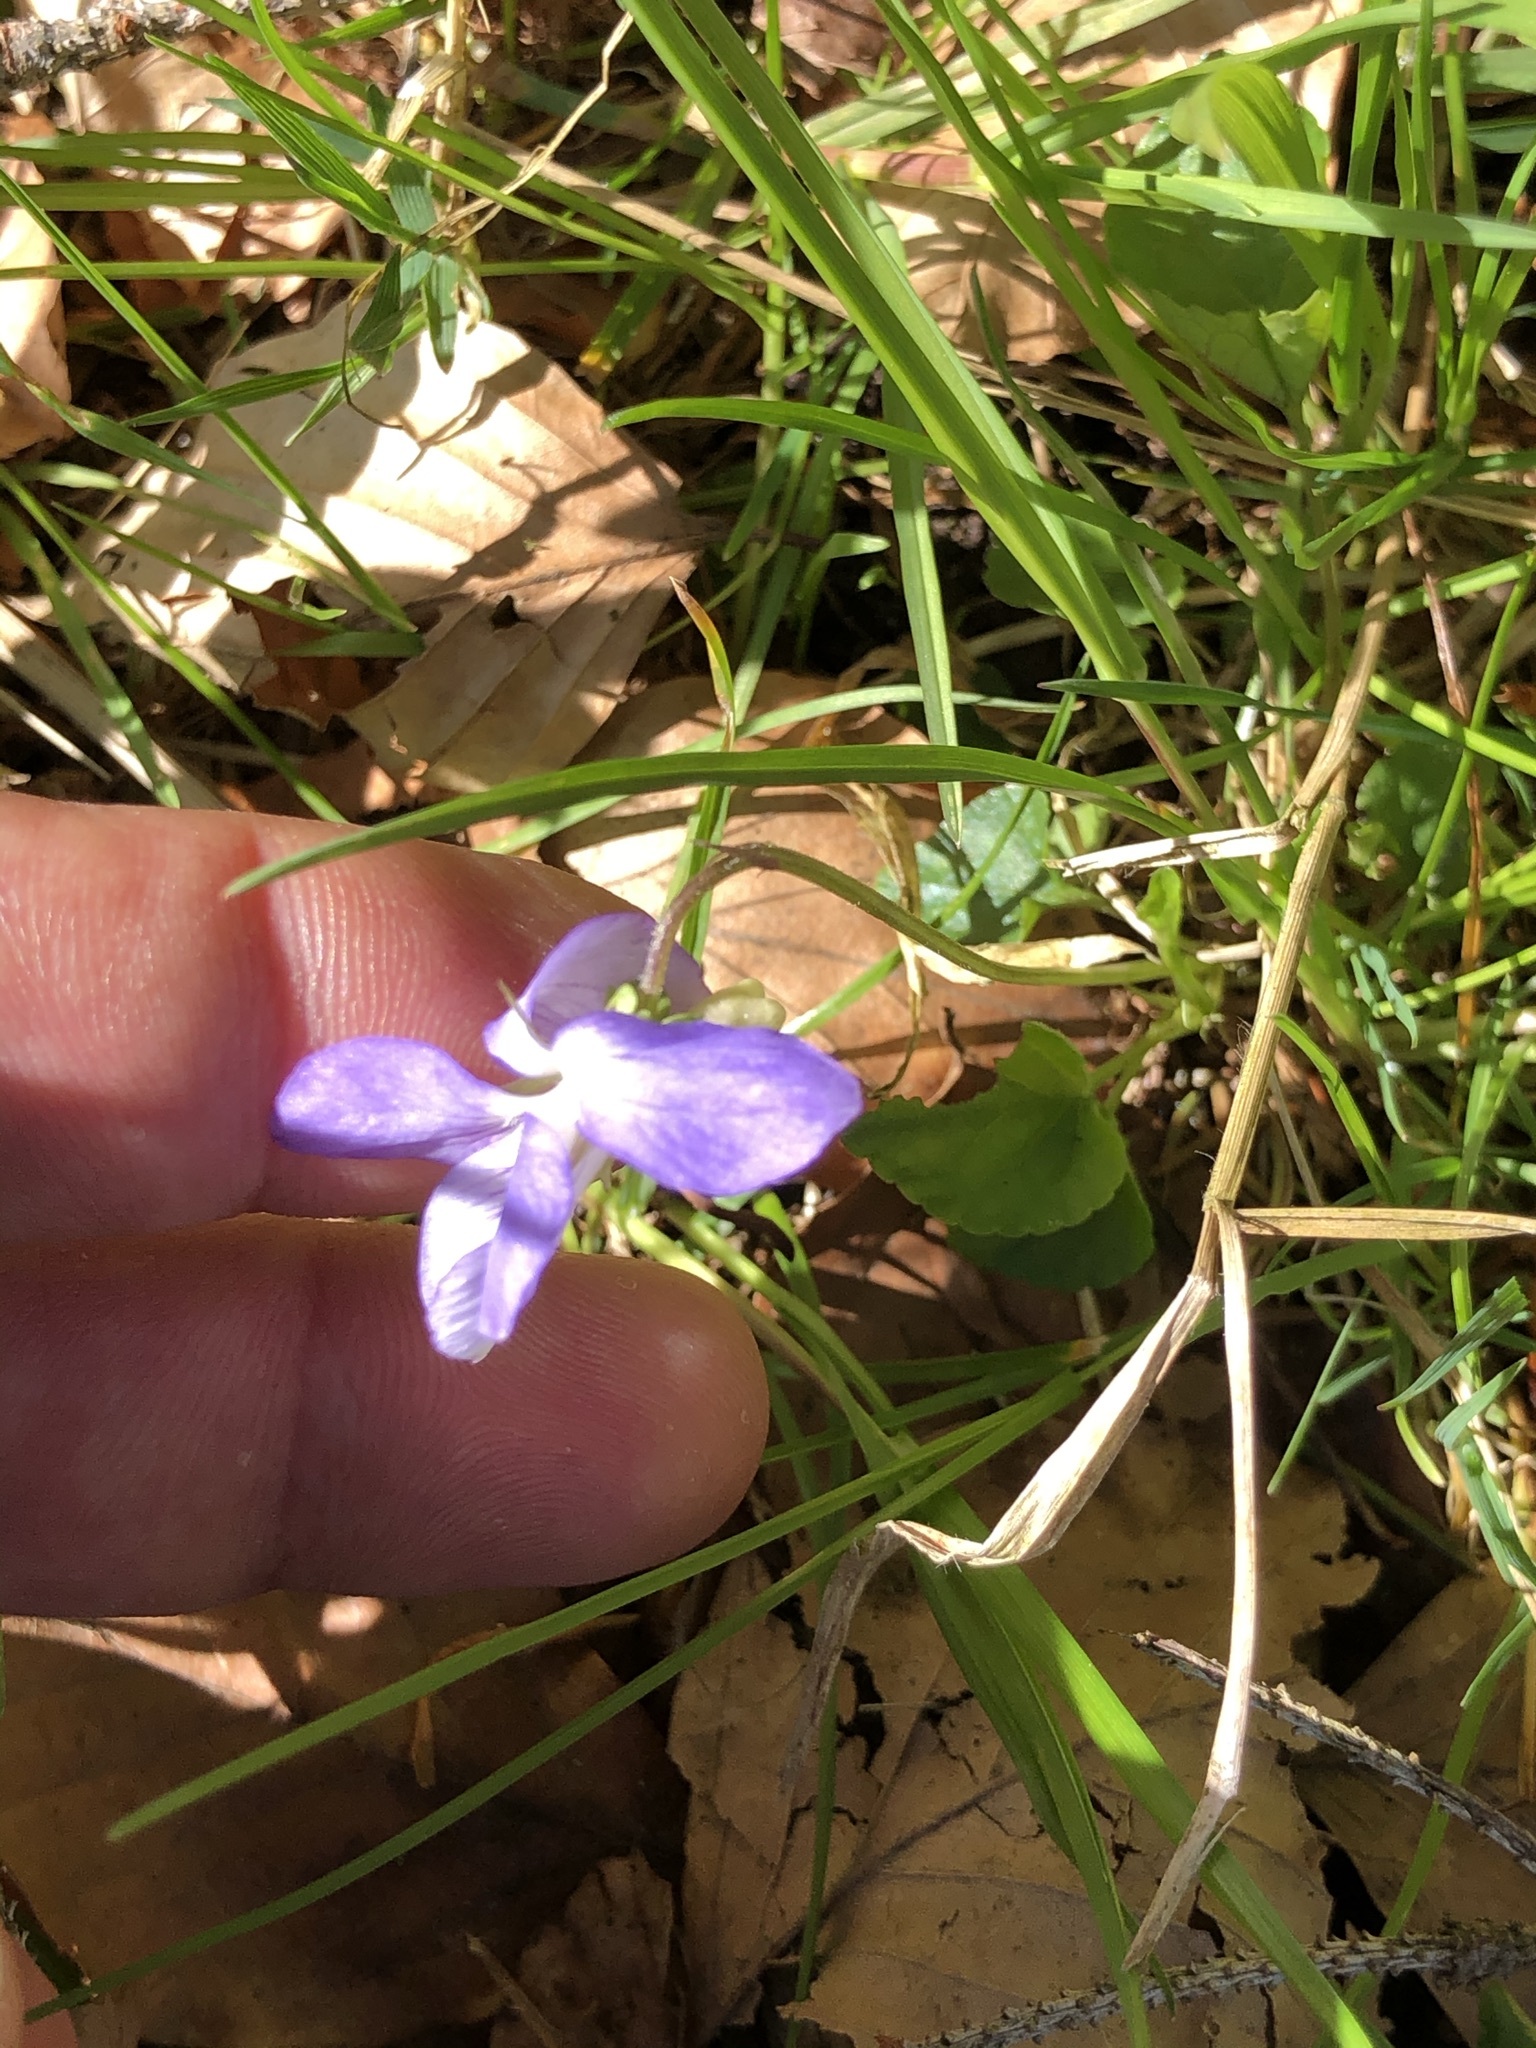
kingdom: Plantae
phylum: Tracheophyta
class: Magnoliopsida
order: Malpighiales
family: Violaceae
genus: Viola
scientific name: Viola riviniana
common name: Common dog-violet
